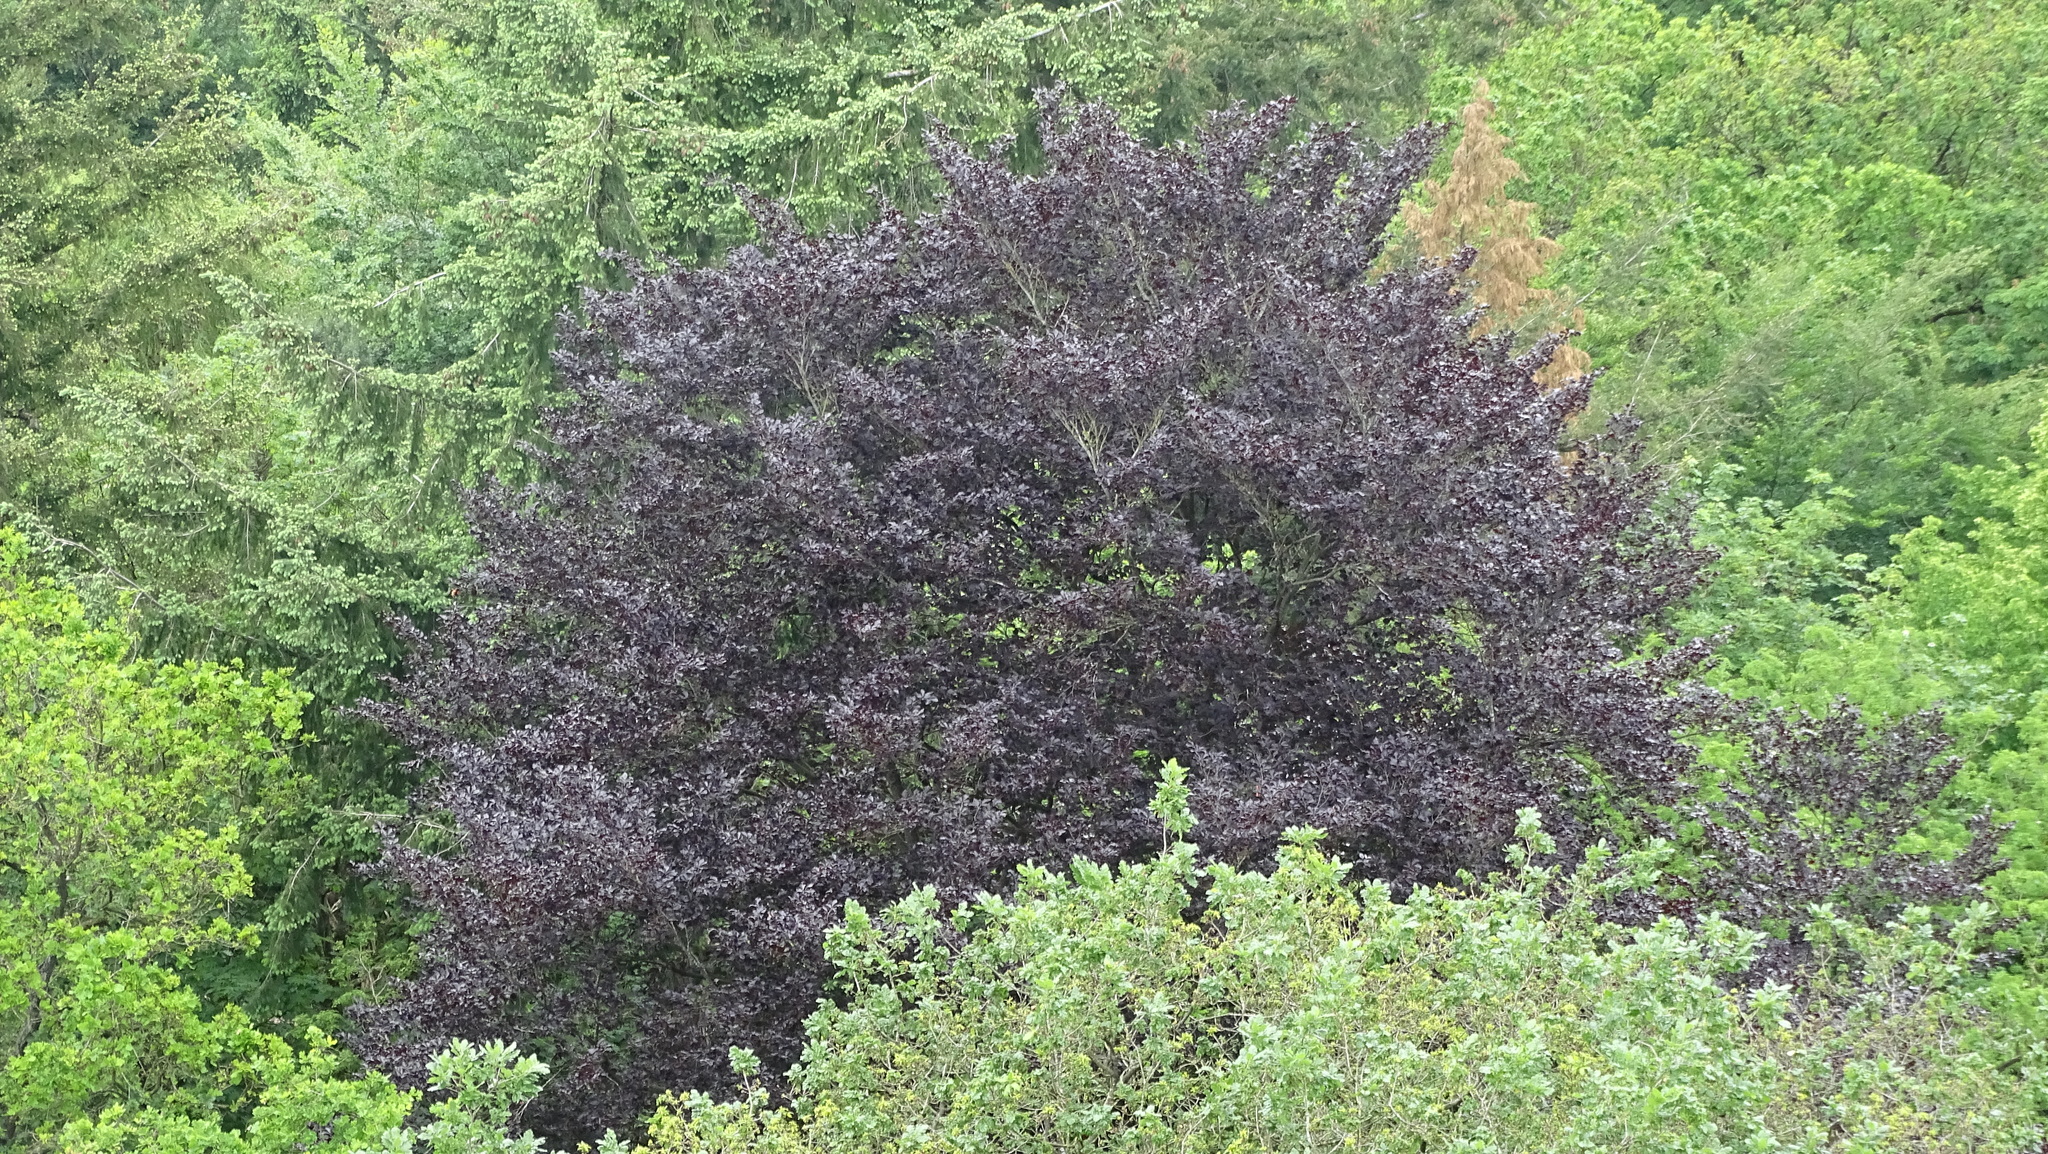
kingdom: Plantae
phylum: Tracheophyta
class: Magnoliopsida
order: Fagales
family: Fagaceae
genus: Fagus
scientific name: Fagus sylvatica
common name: Beech
